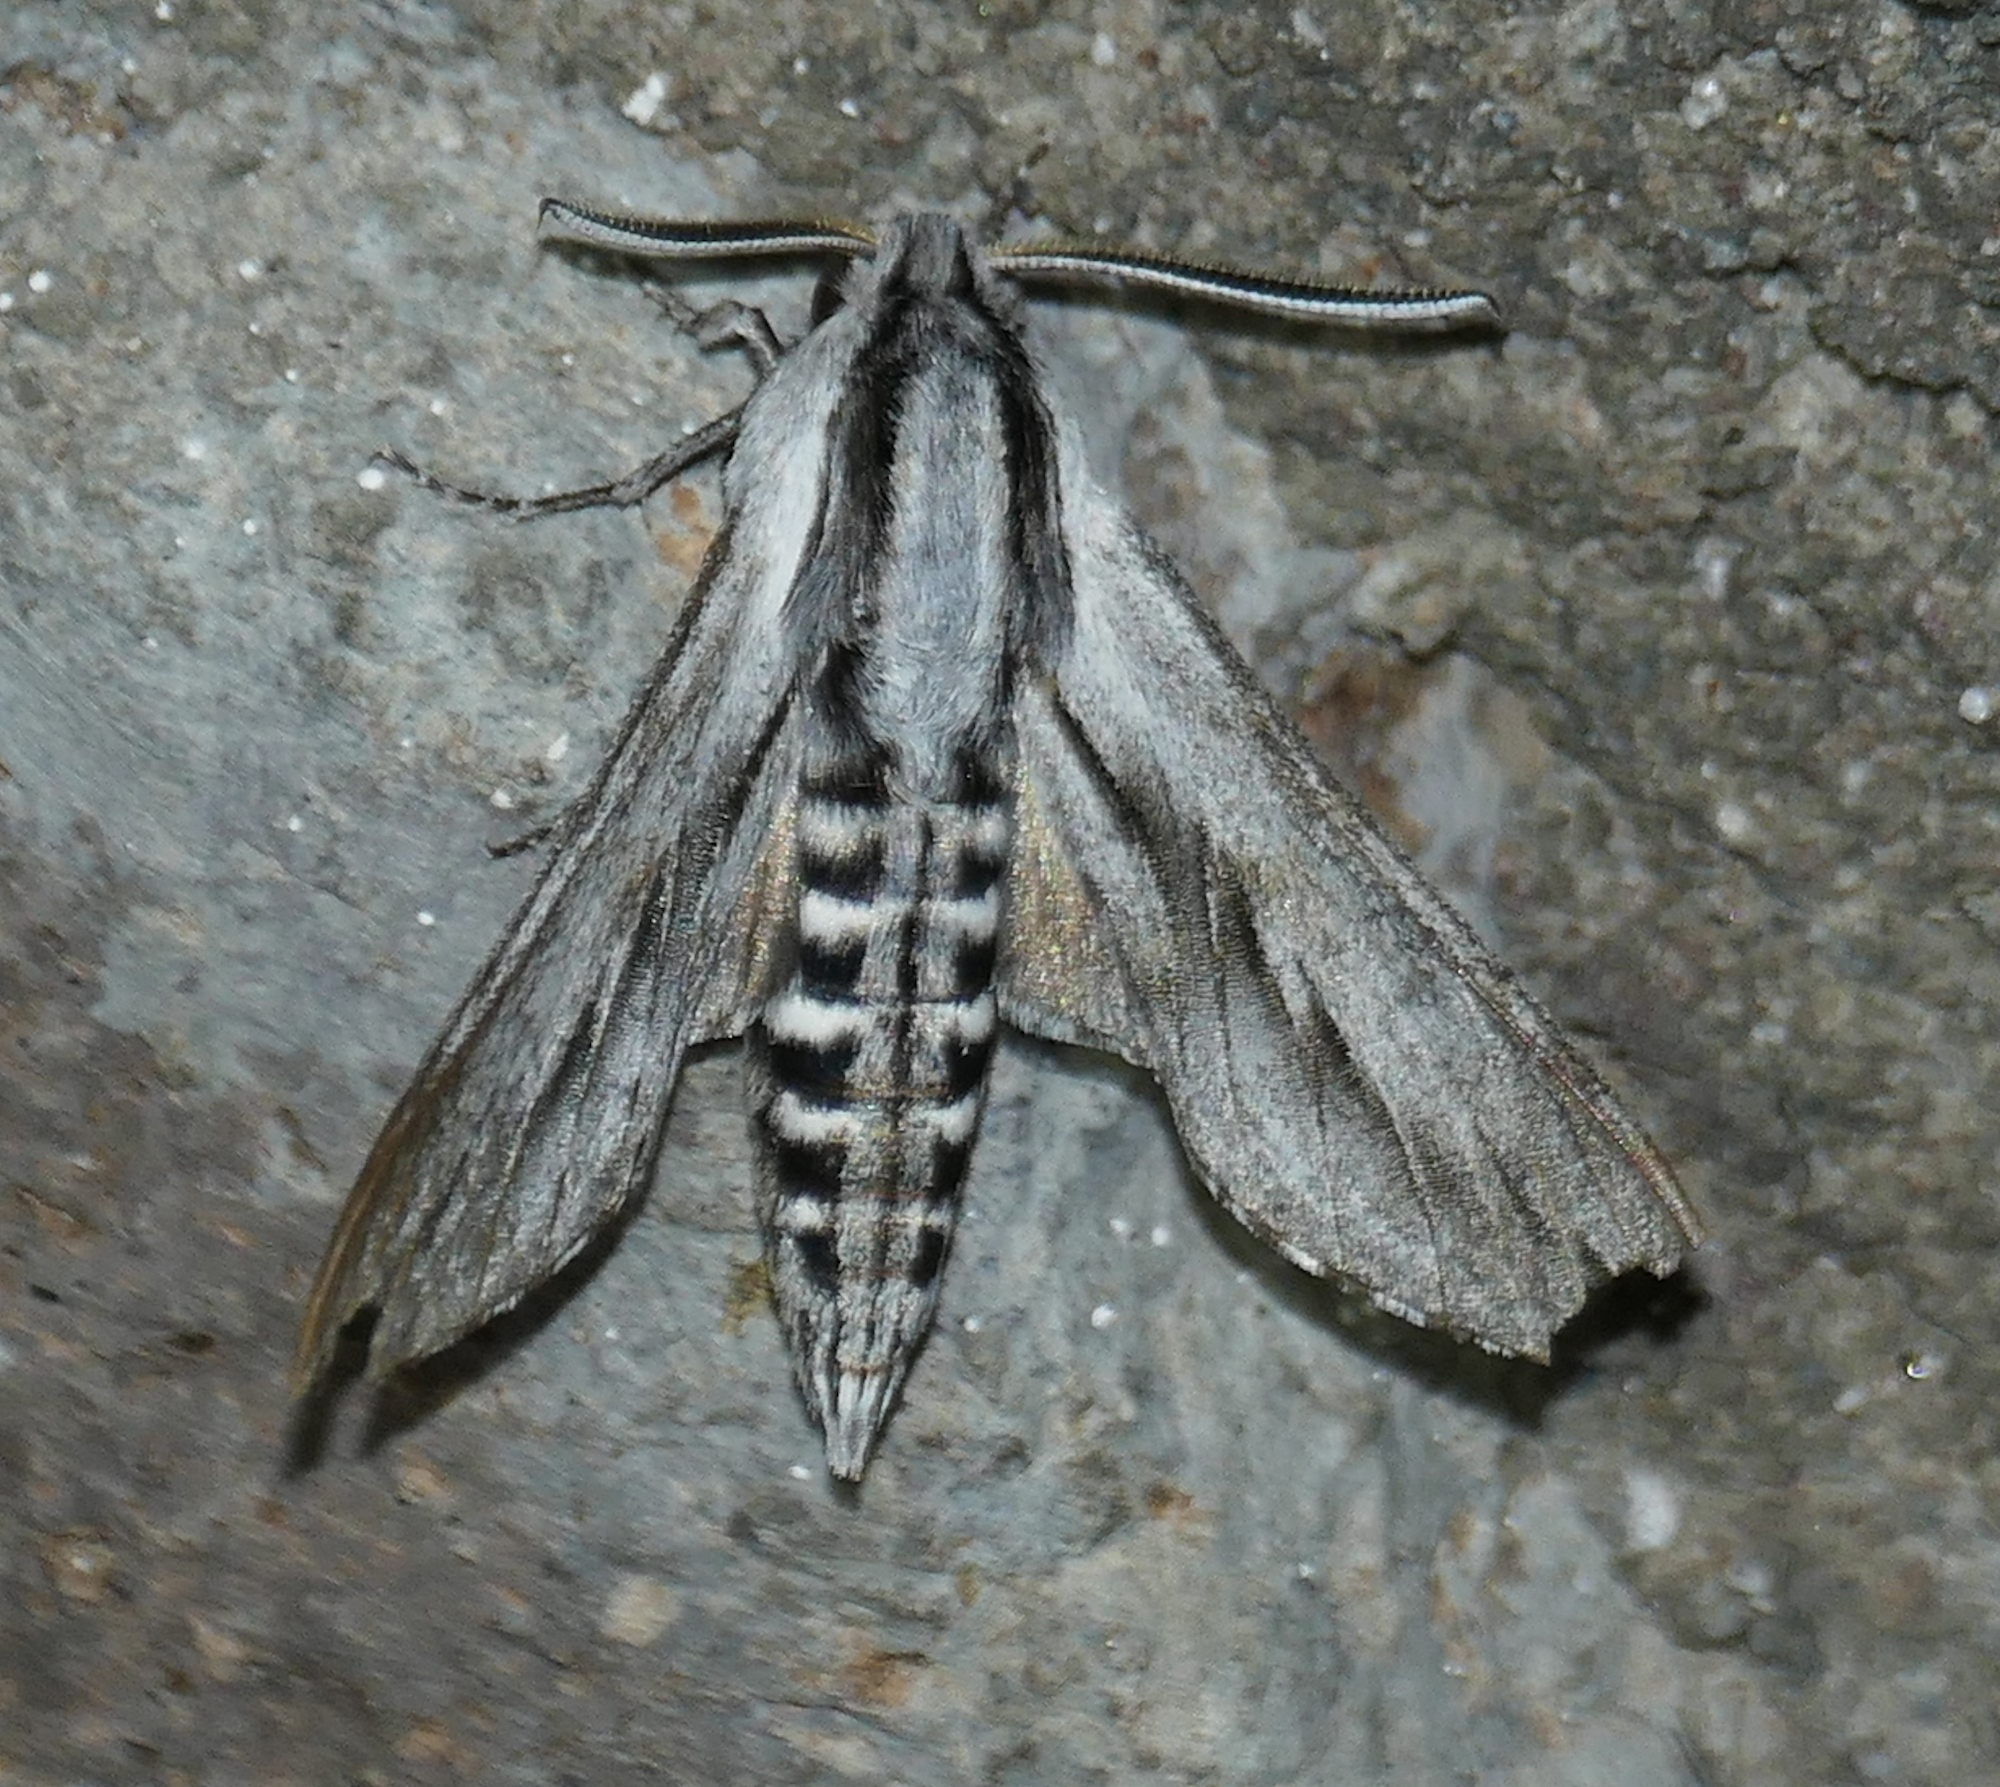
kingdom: Animalia
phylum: Arthropoda
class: Insecta
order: Lepidoptera
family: Sphingidae
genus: Sphinx
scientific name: Sphinx dollii
